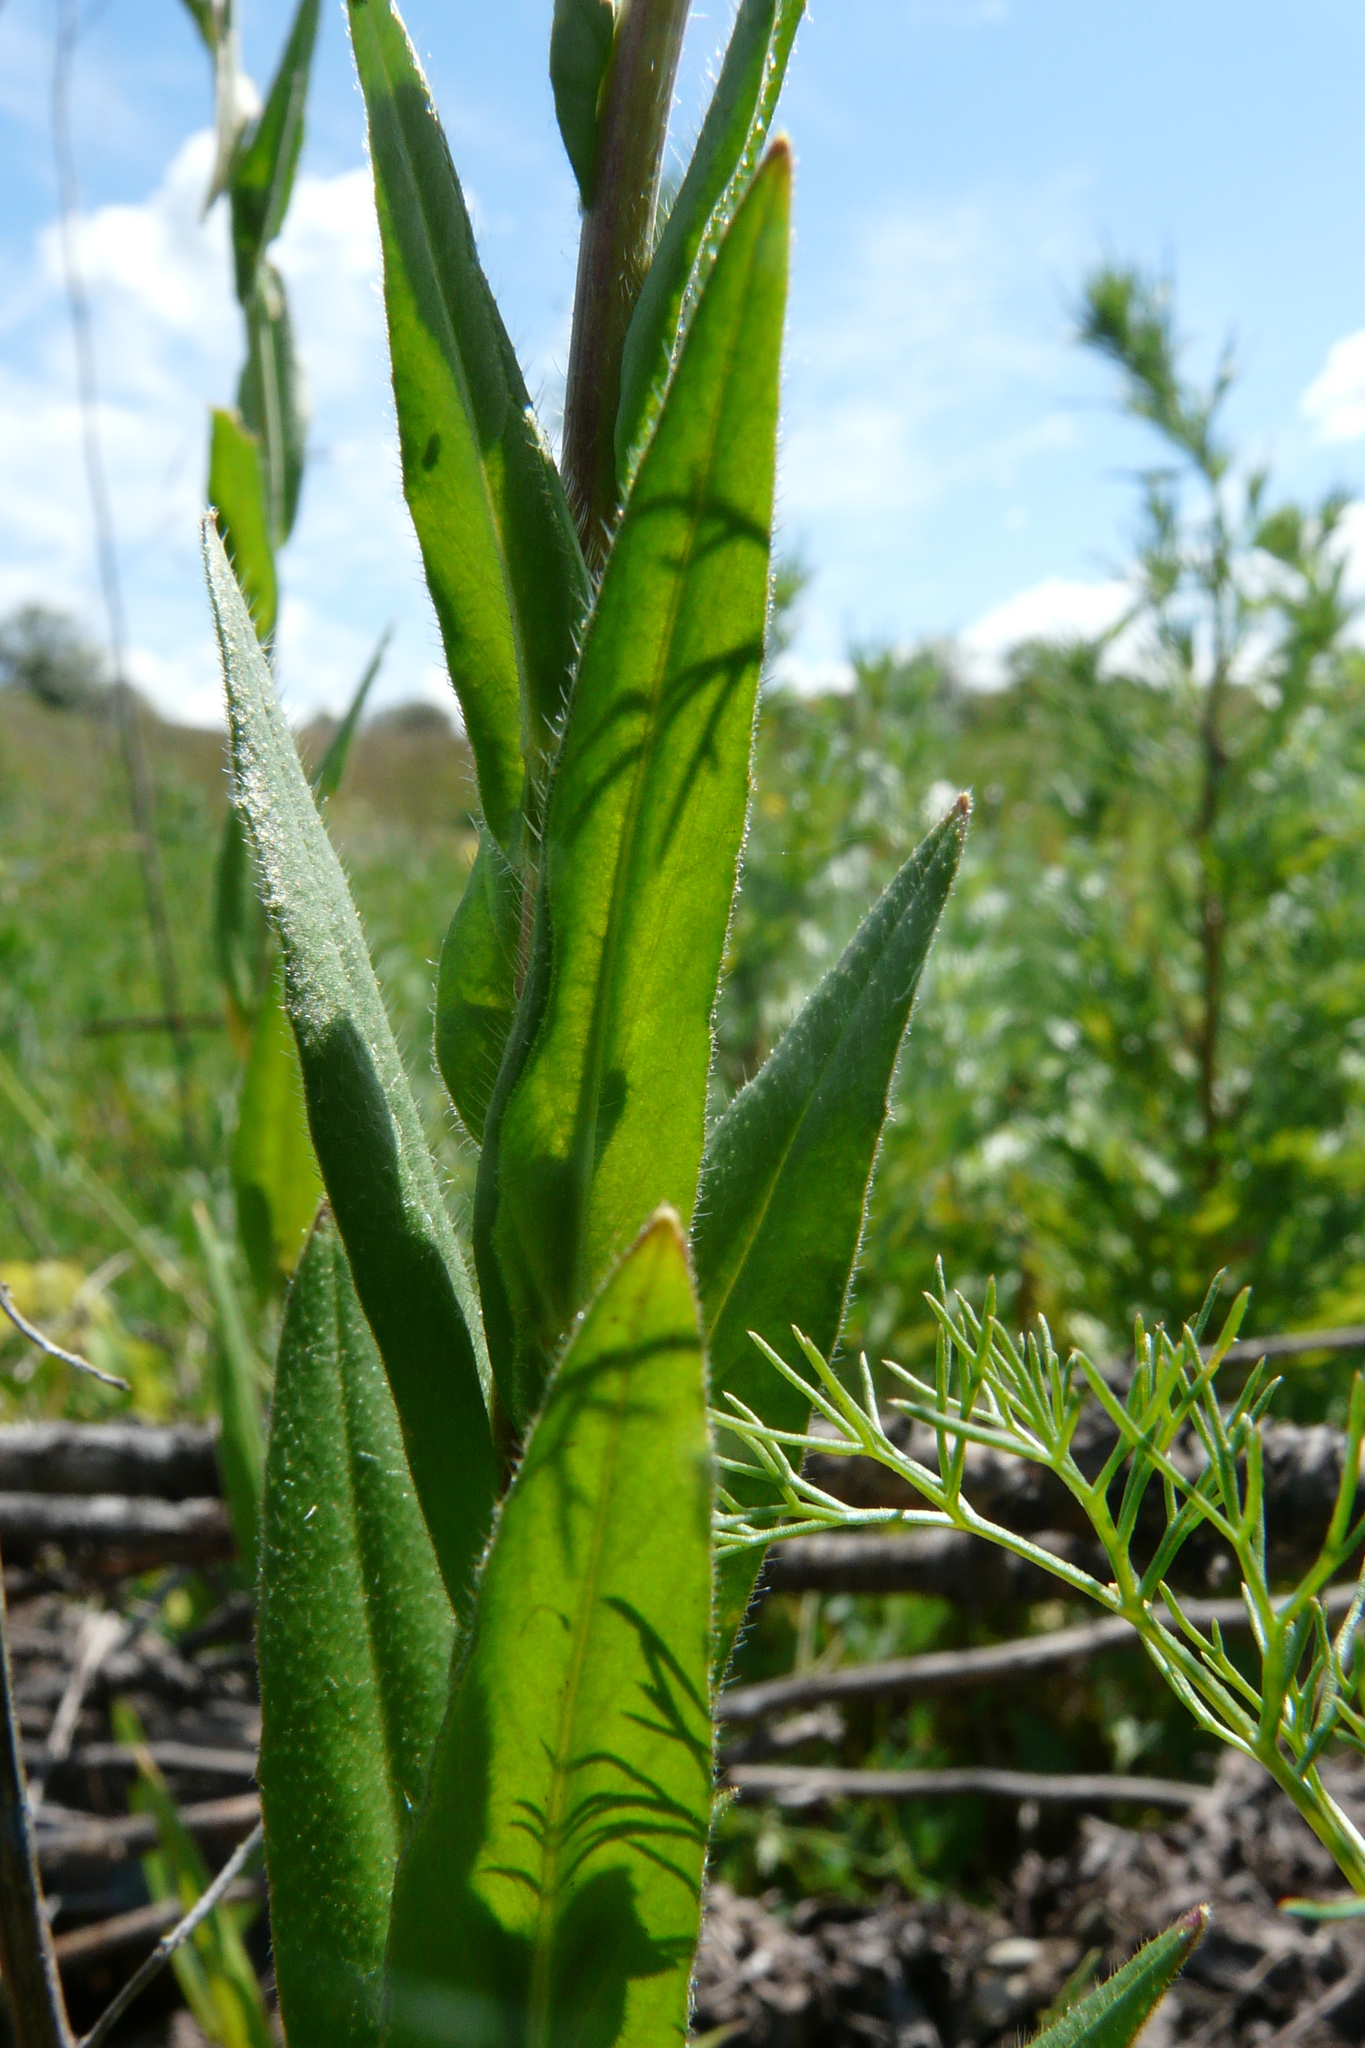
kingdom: Plantae
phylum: Tracheophyta
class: Magnoliopsida
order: Brassicales
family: Brassicaceae
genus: Camelina
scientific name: Camelina microcarpa
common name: Lesser gold-of-pleasure
